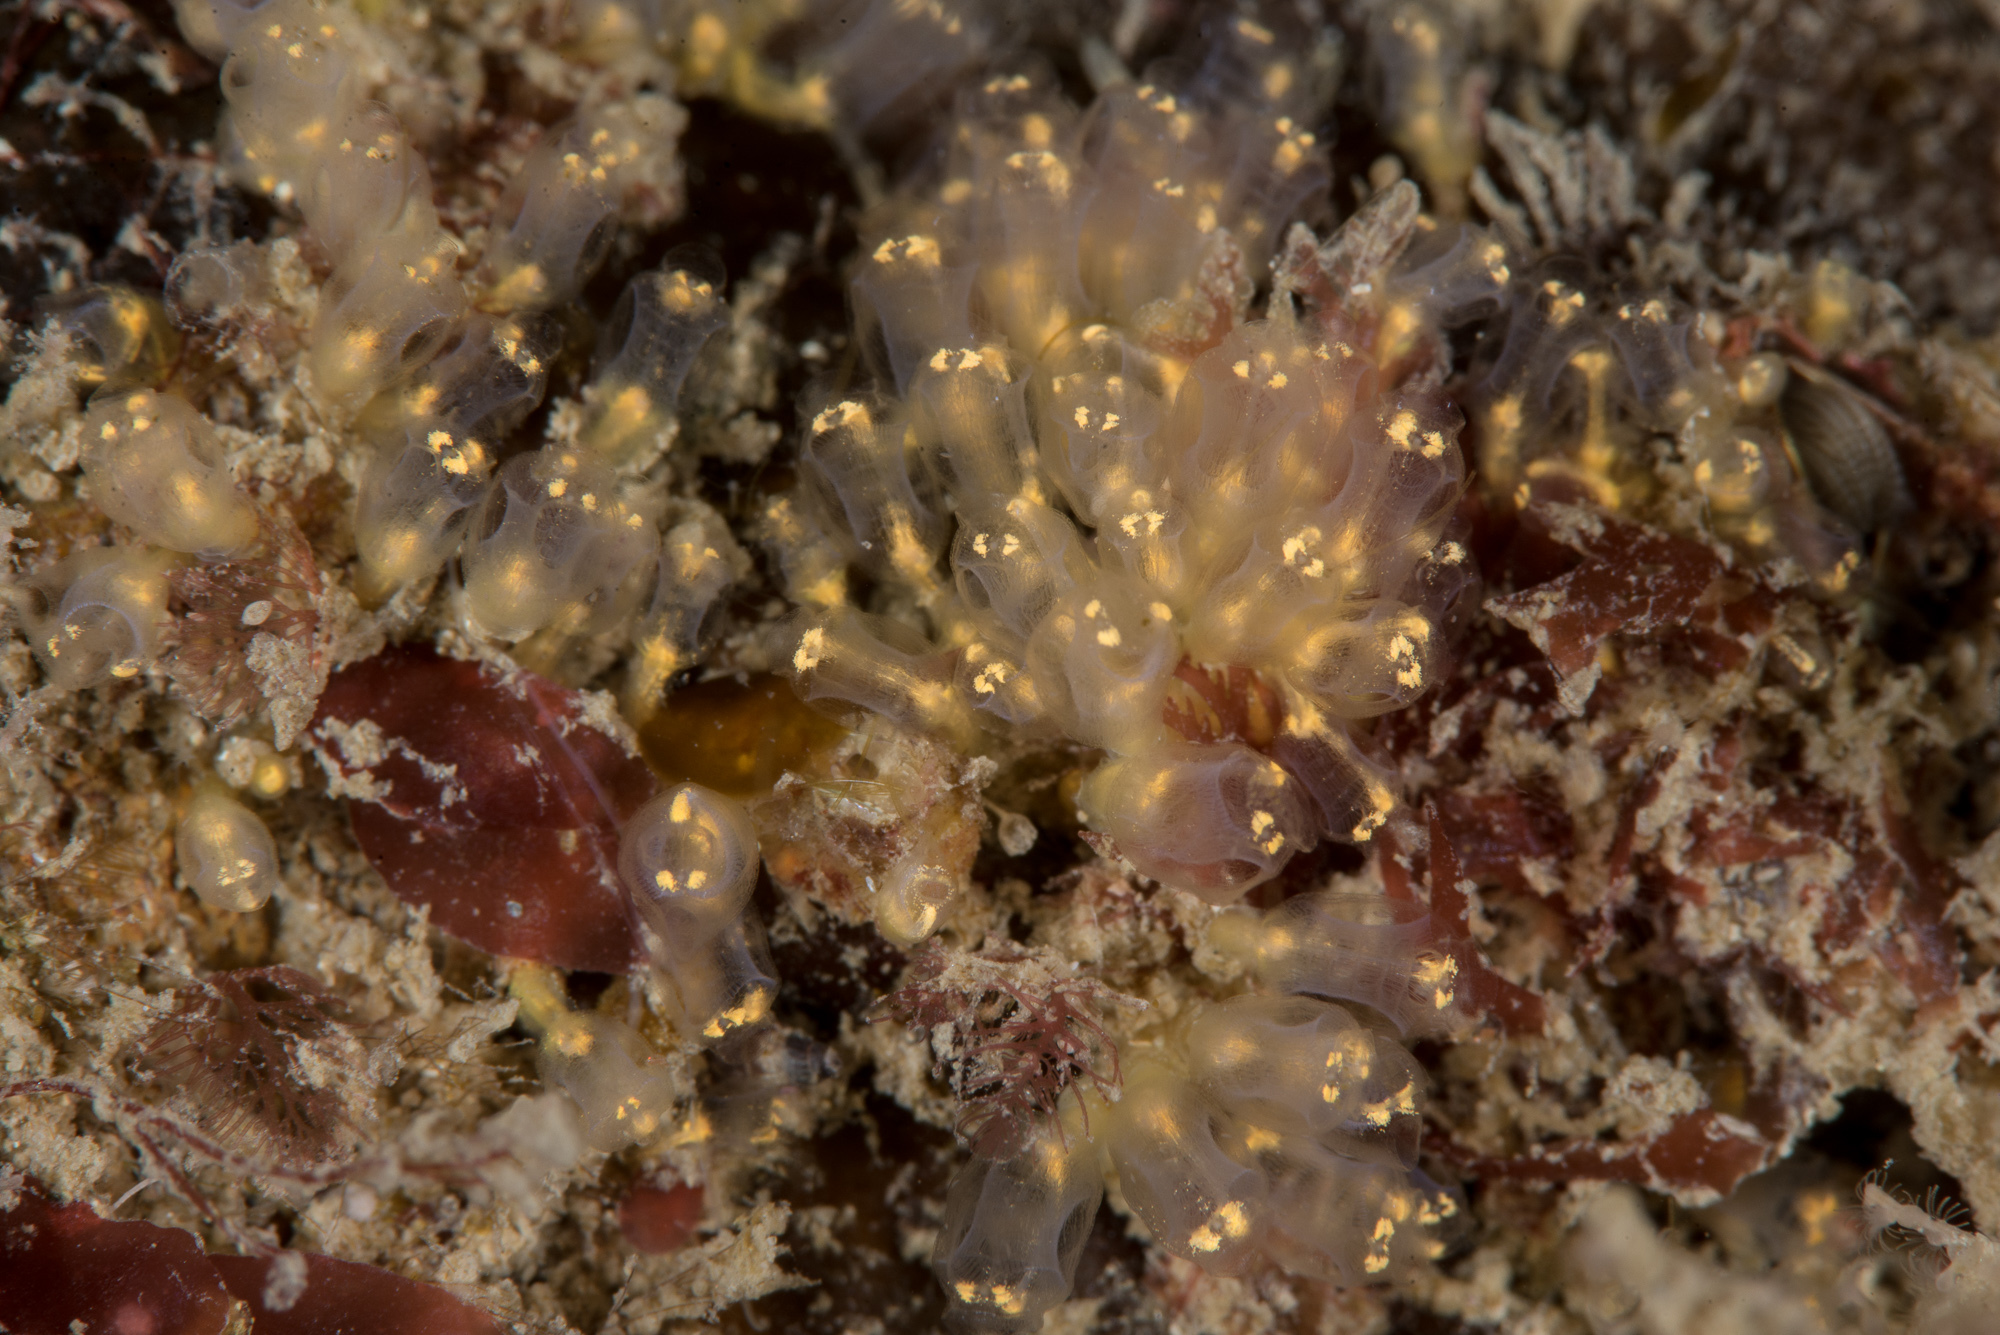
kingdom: Animalia
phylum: Chordata
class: Ascidiacea
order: Aplousobranchia
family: Clavelinidae
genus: Pycnoclavella
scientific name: Pycnoclavella aurilucens
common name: Orange lights seasquirt
